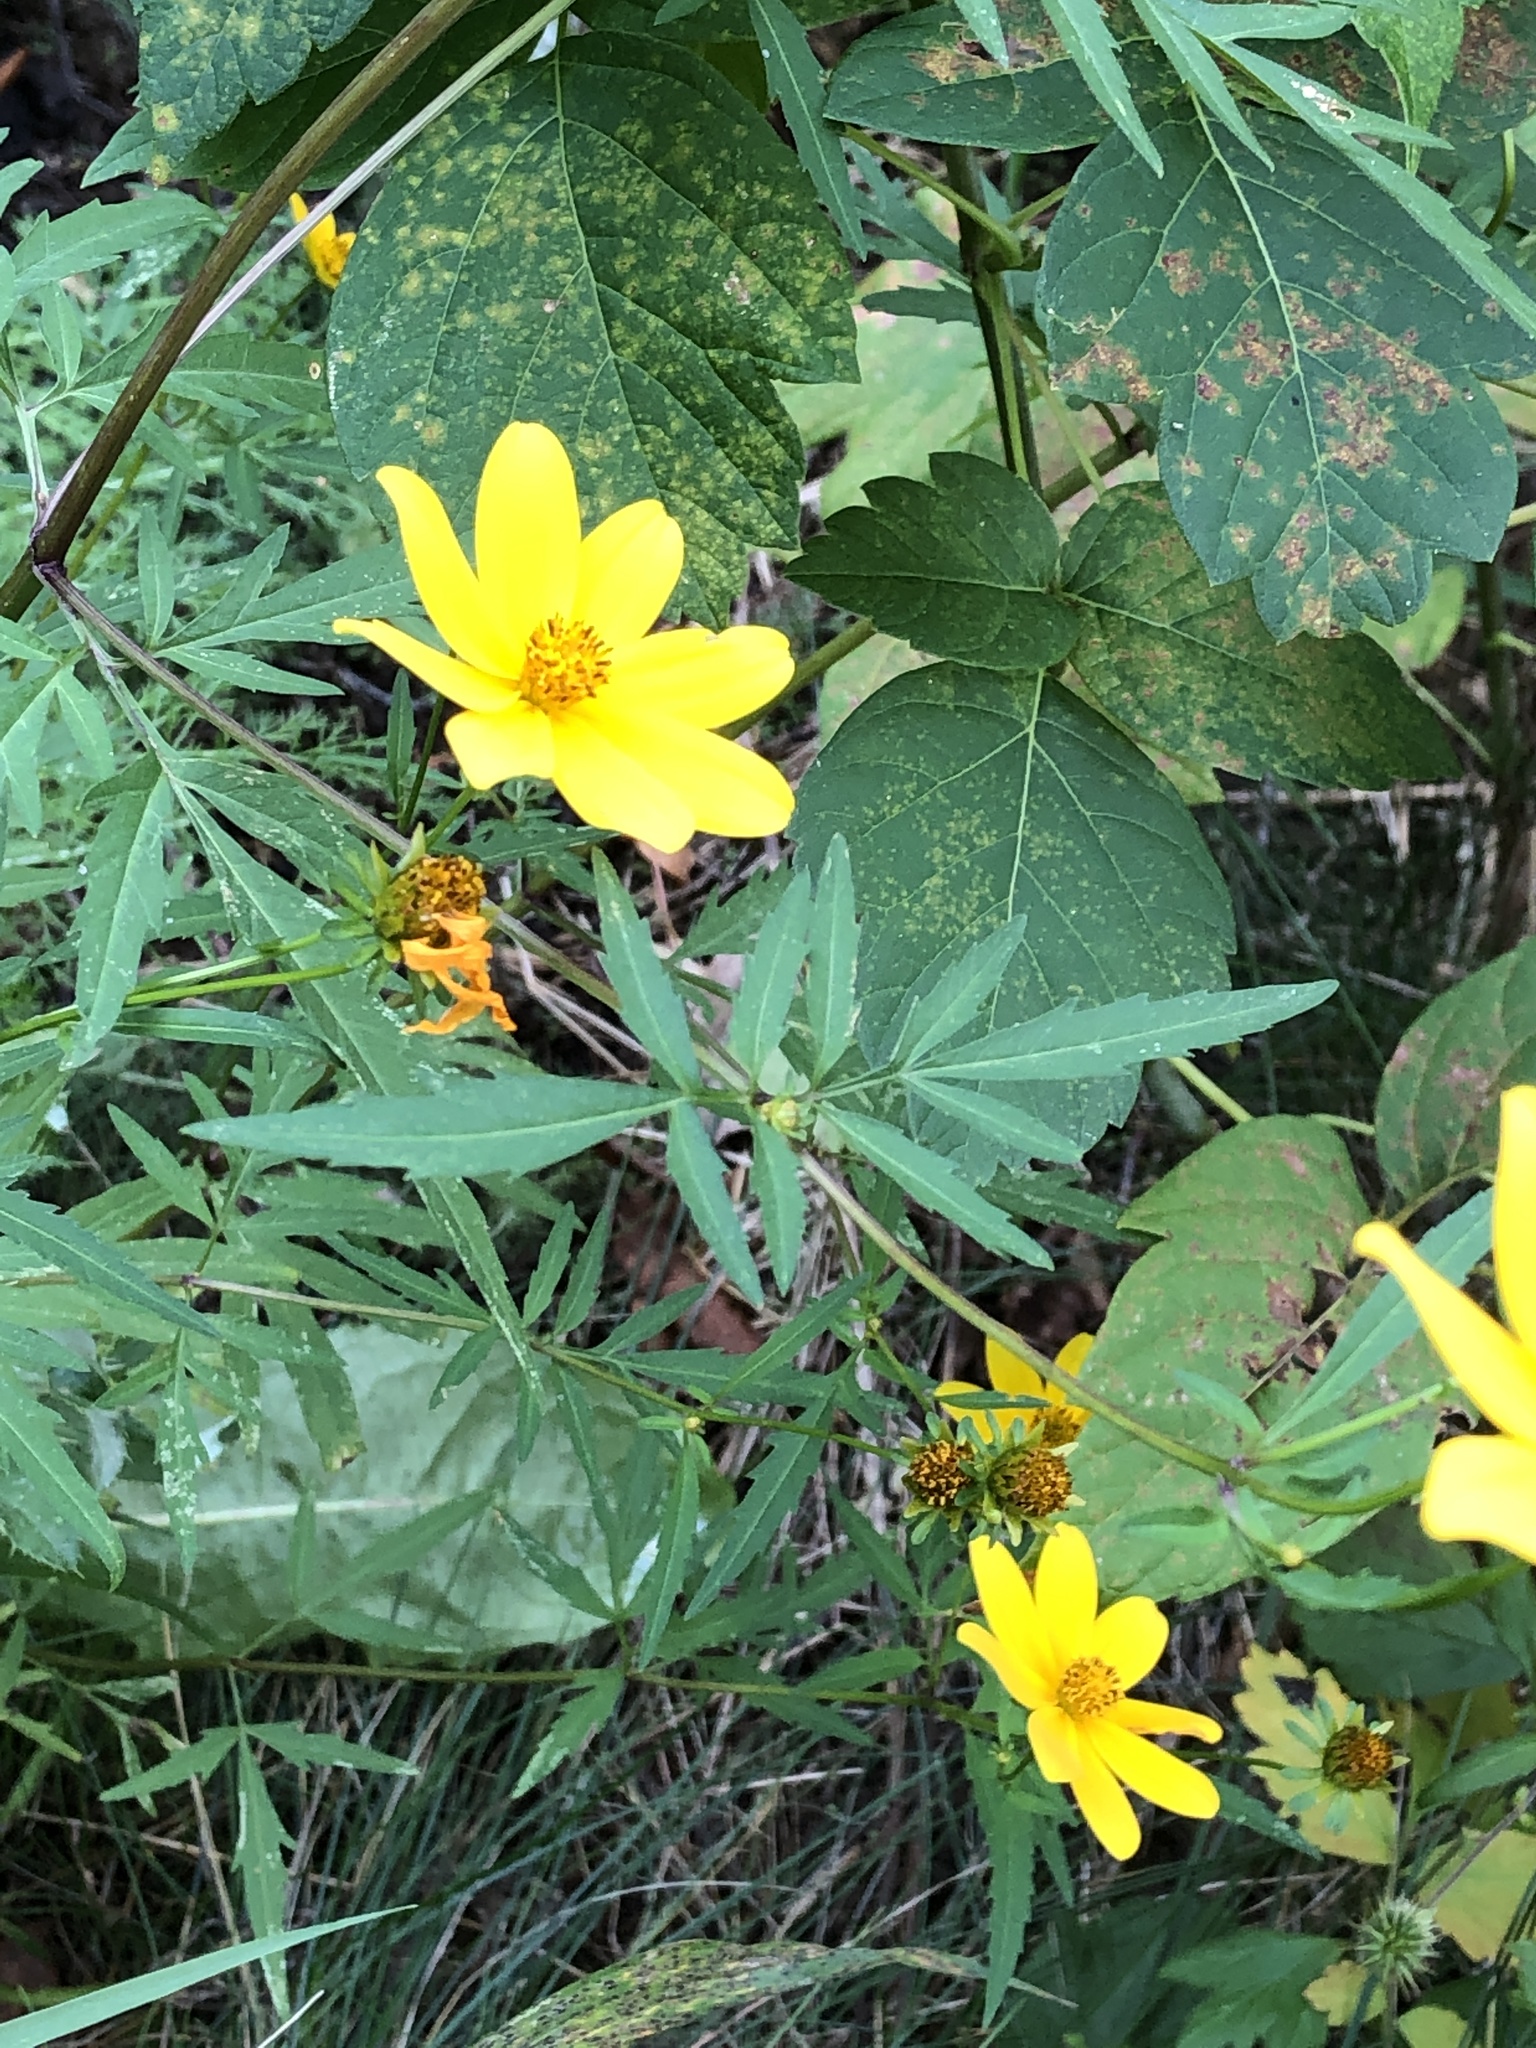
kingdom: Plantae
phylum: Tracheophyta
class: Magnoliopsida
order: Asterales
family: Asteraceae
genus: Bidens
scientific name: Bidens trichosperma
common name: Crowned beggarticks
